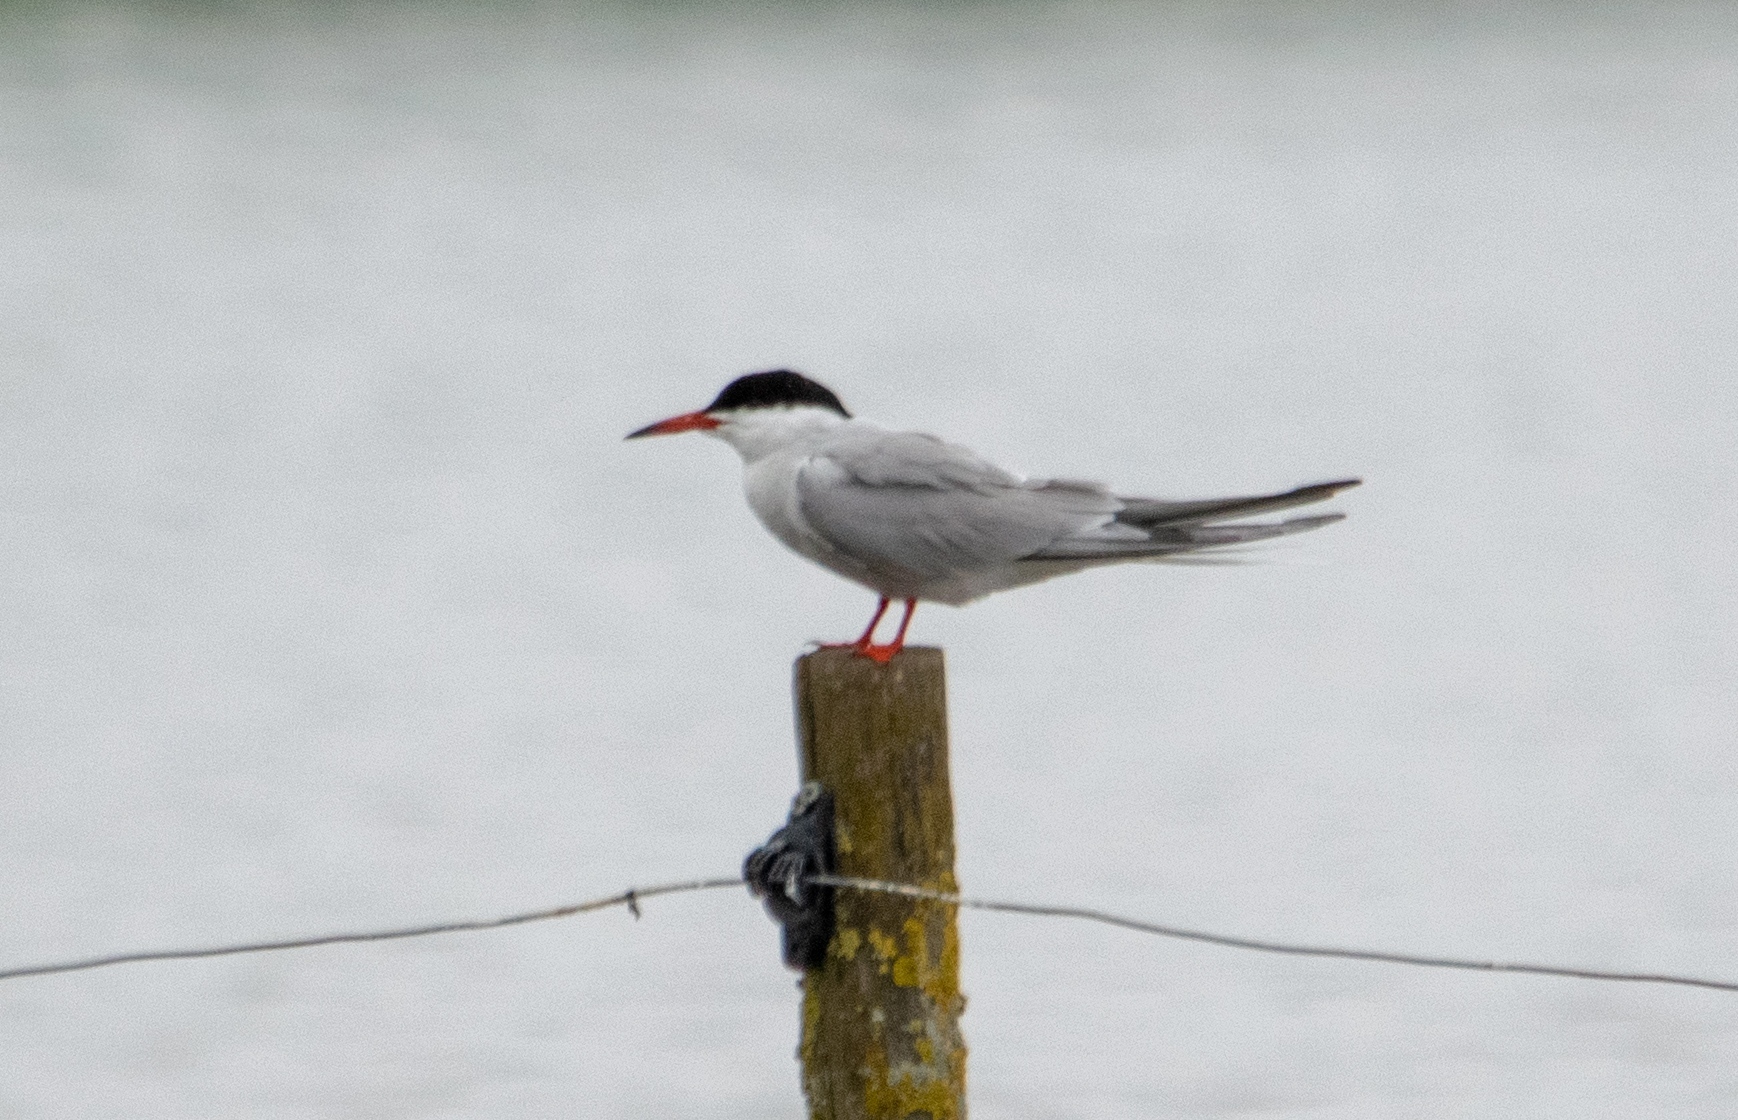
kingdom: Animalia
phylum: Chordata
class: Aves
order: Charadriiformes
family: Laridae
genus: Sterna
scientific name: Sterna hirundo
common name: Common tern
